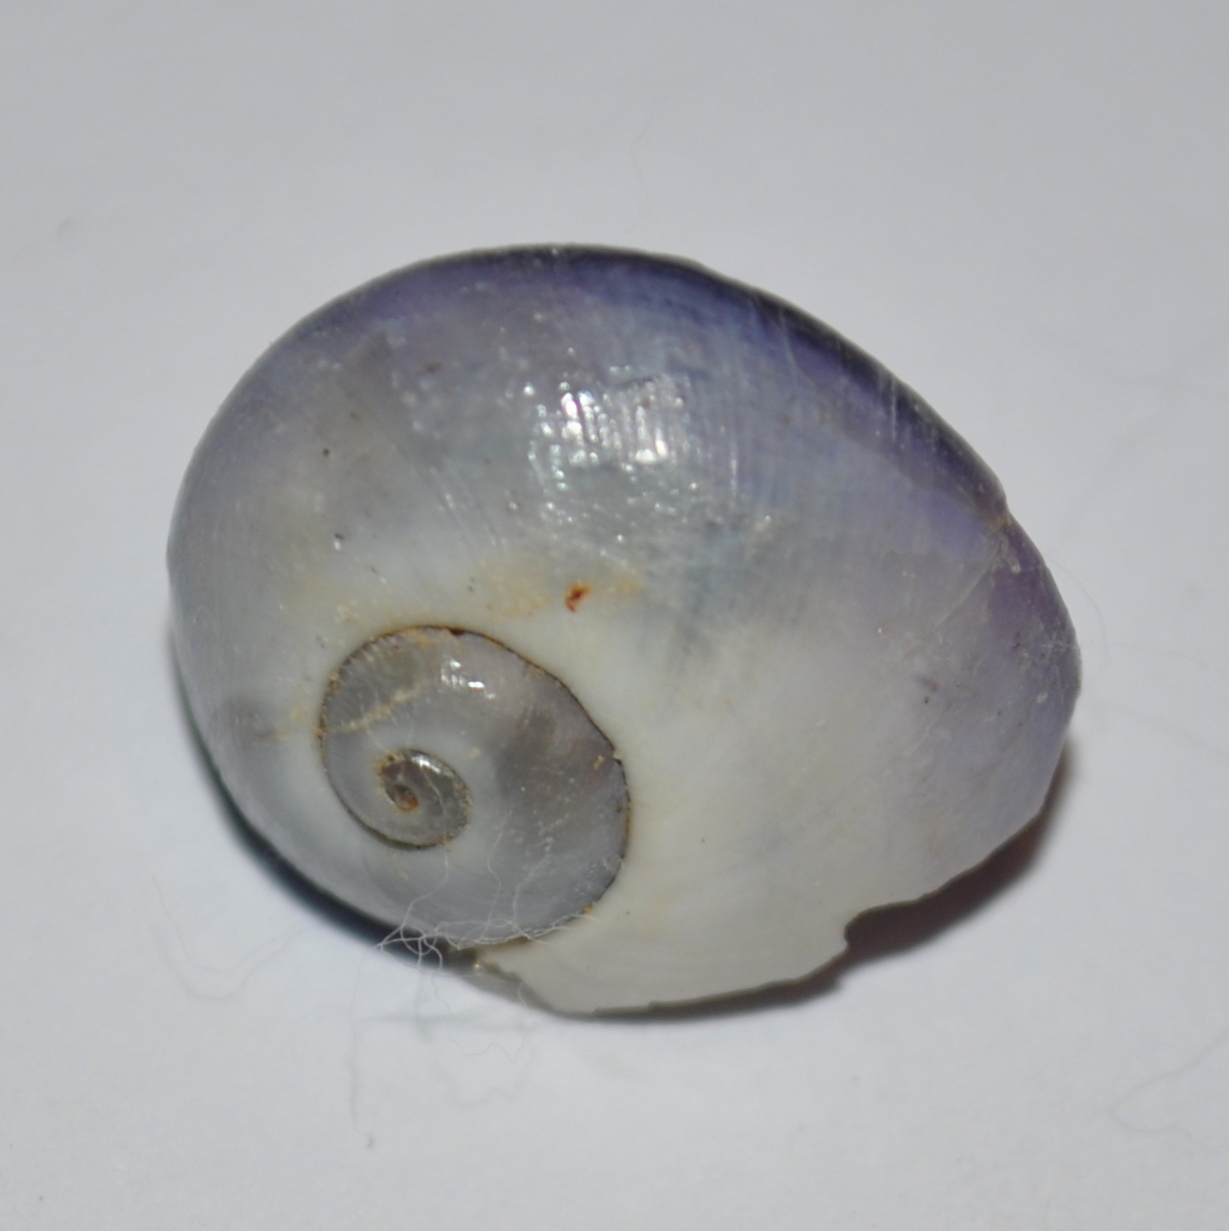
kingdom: Animalia
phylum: Mollusca
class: Gastropoda
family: Epitoniidae
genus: Janthina
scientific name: Janthina janthina
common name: Common janthina
